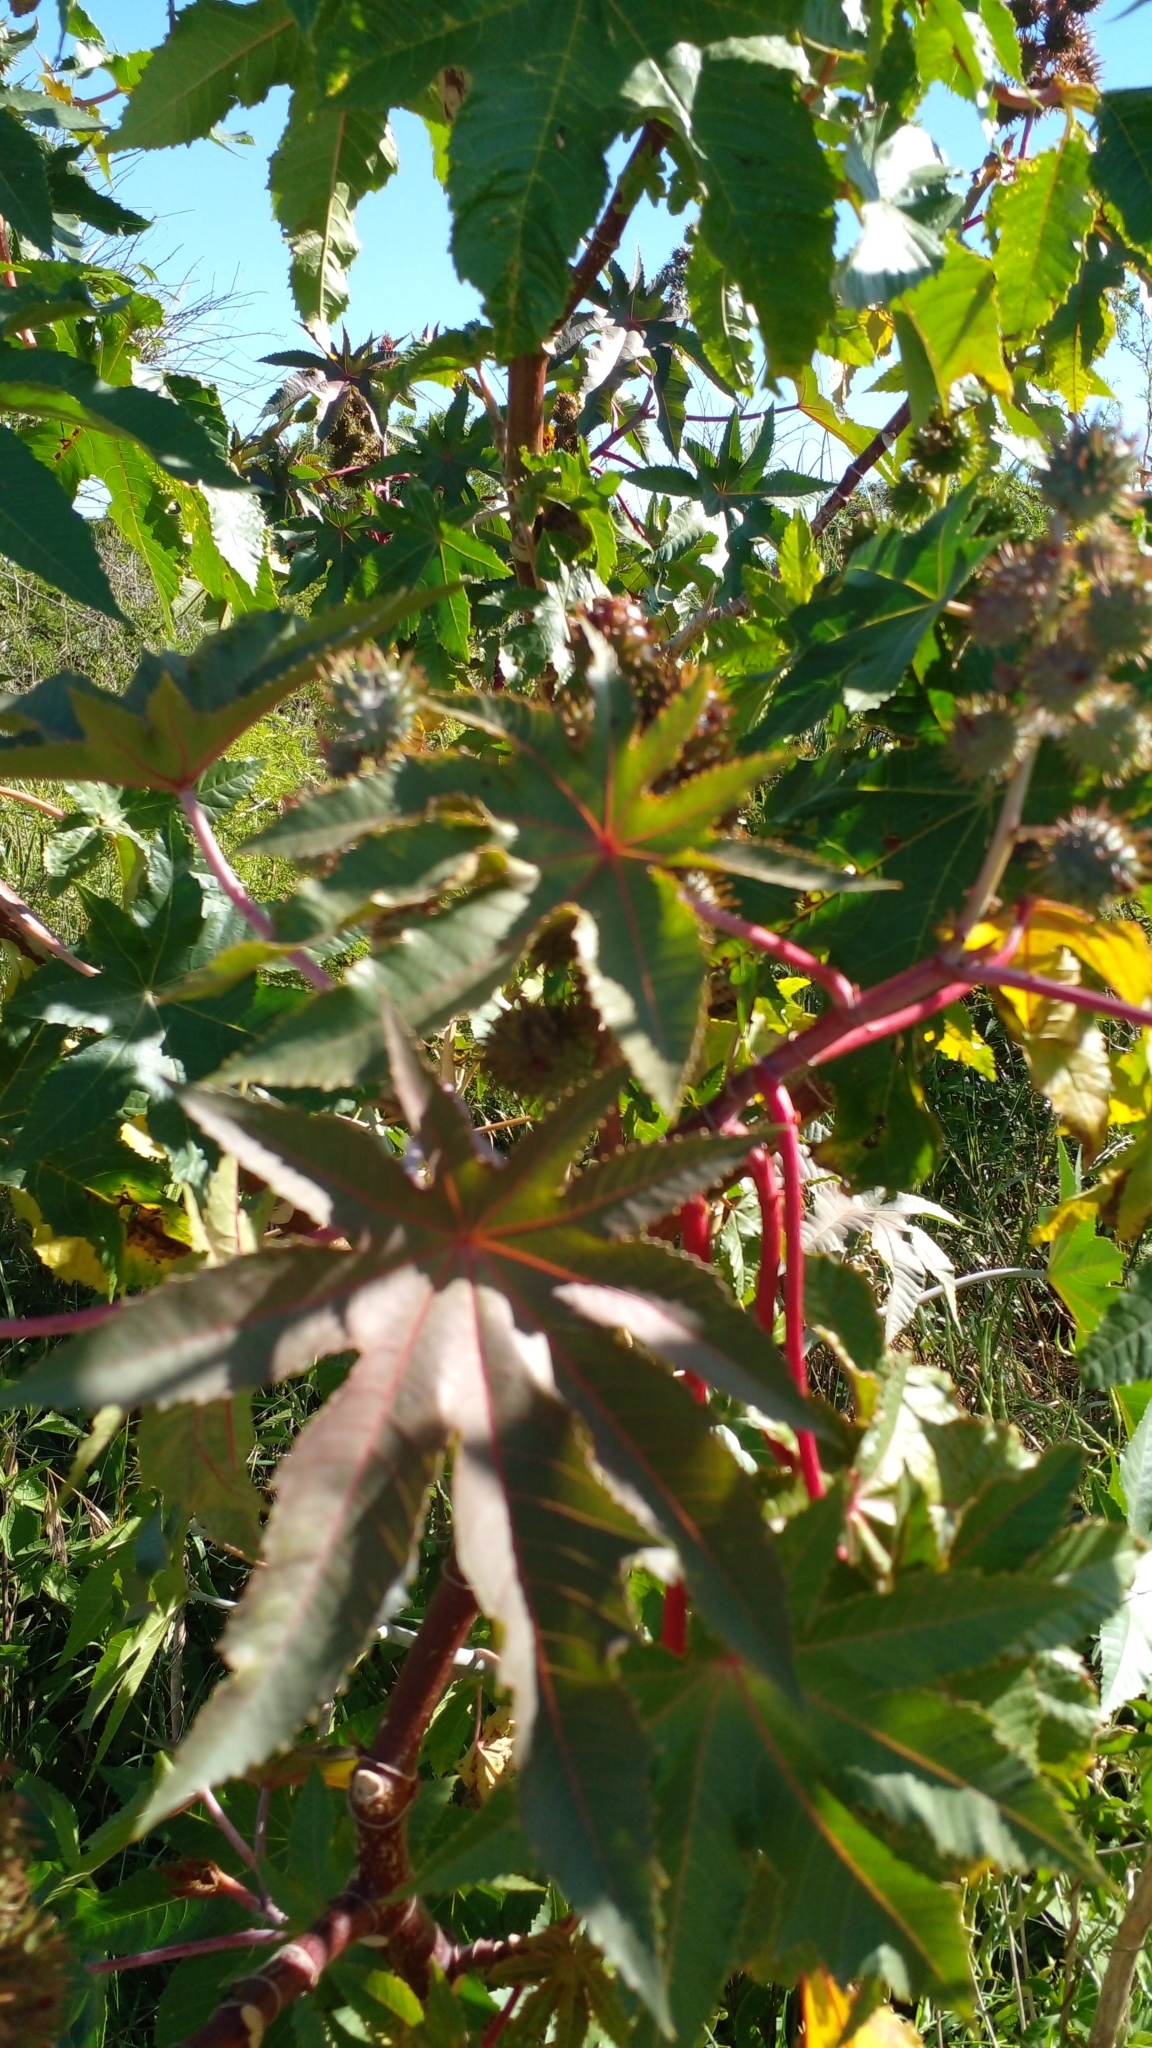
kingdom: Plantae
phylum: Tracheophyta
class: Magnoliopsida
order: Malpighiales
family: Euphorbiaceae
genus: Ricinus
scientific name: Ricinus communis
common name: Castor-oil-plant
